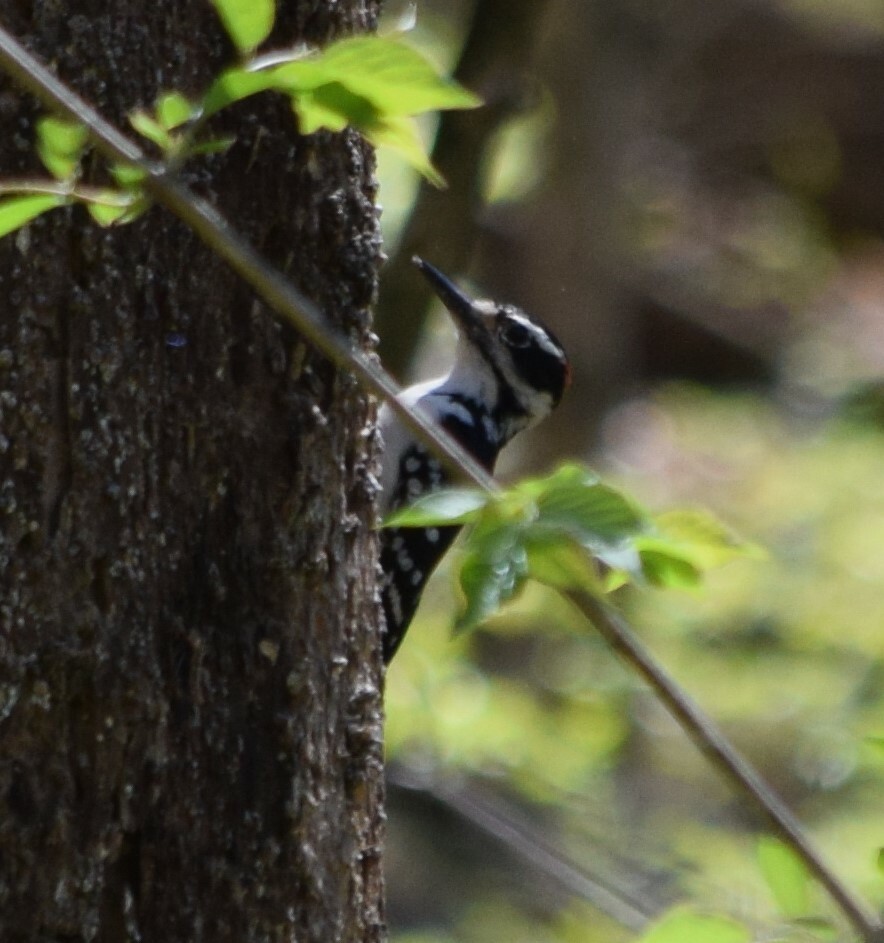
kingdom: Animalia
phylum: Chordata
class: Aves
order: Piciformes
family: Picidae
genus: Leuconotopicus
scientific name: Leuconotopicus villosus
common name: Hairy woodpecker
